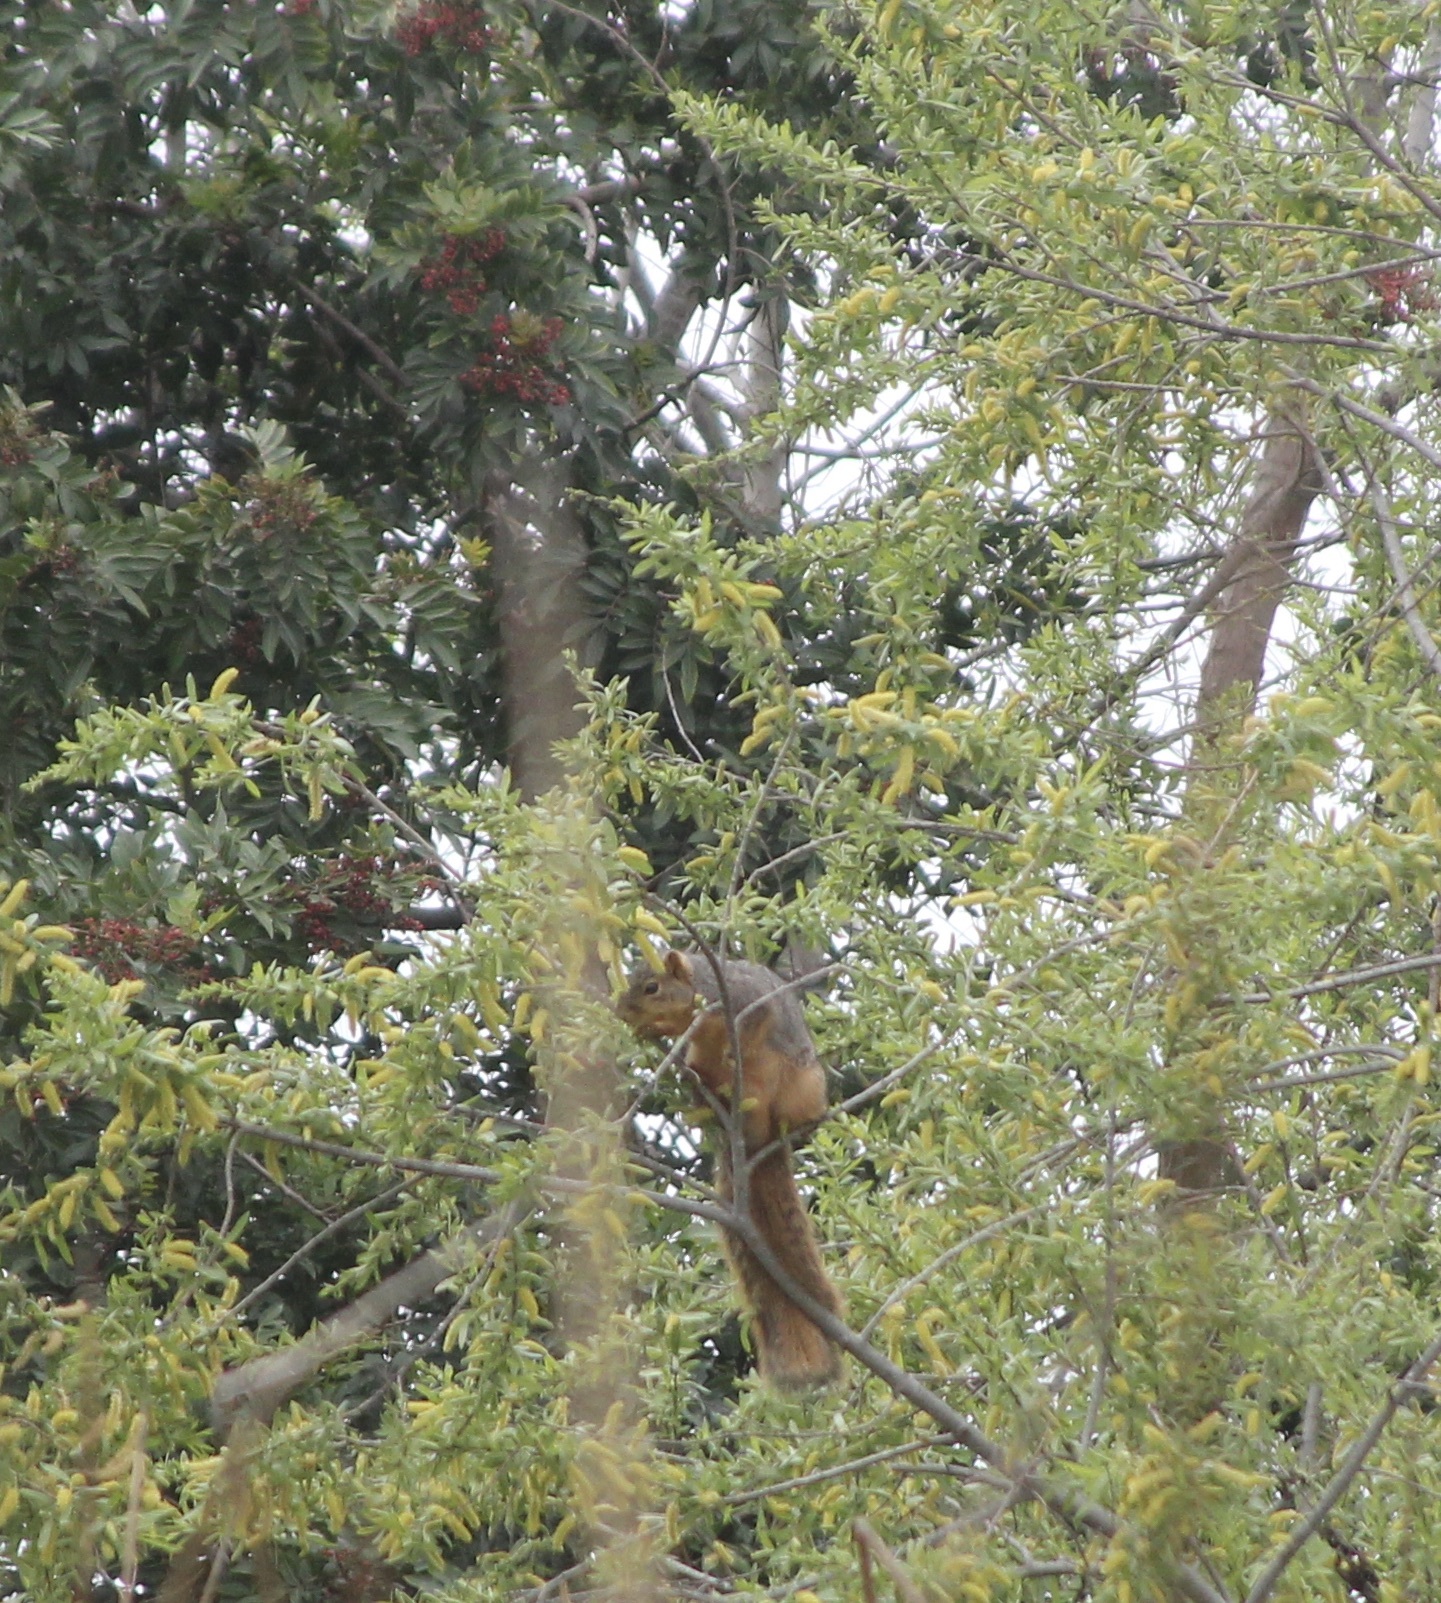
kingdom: Animalia
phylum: Chordata
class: Mammalia
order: Rodentia
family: Sciuridae
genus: Sciurus
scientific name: Sciurus niger
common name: Fox squirrel
